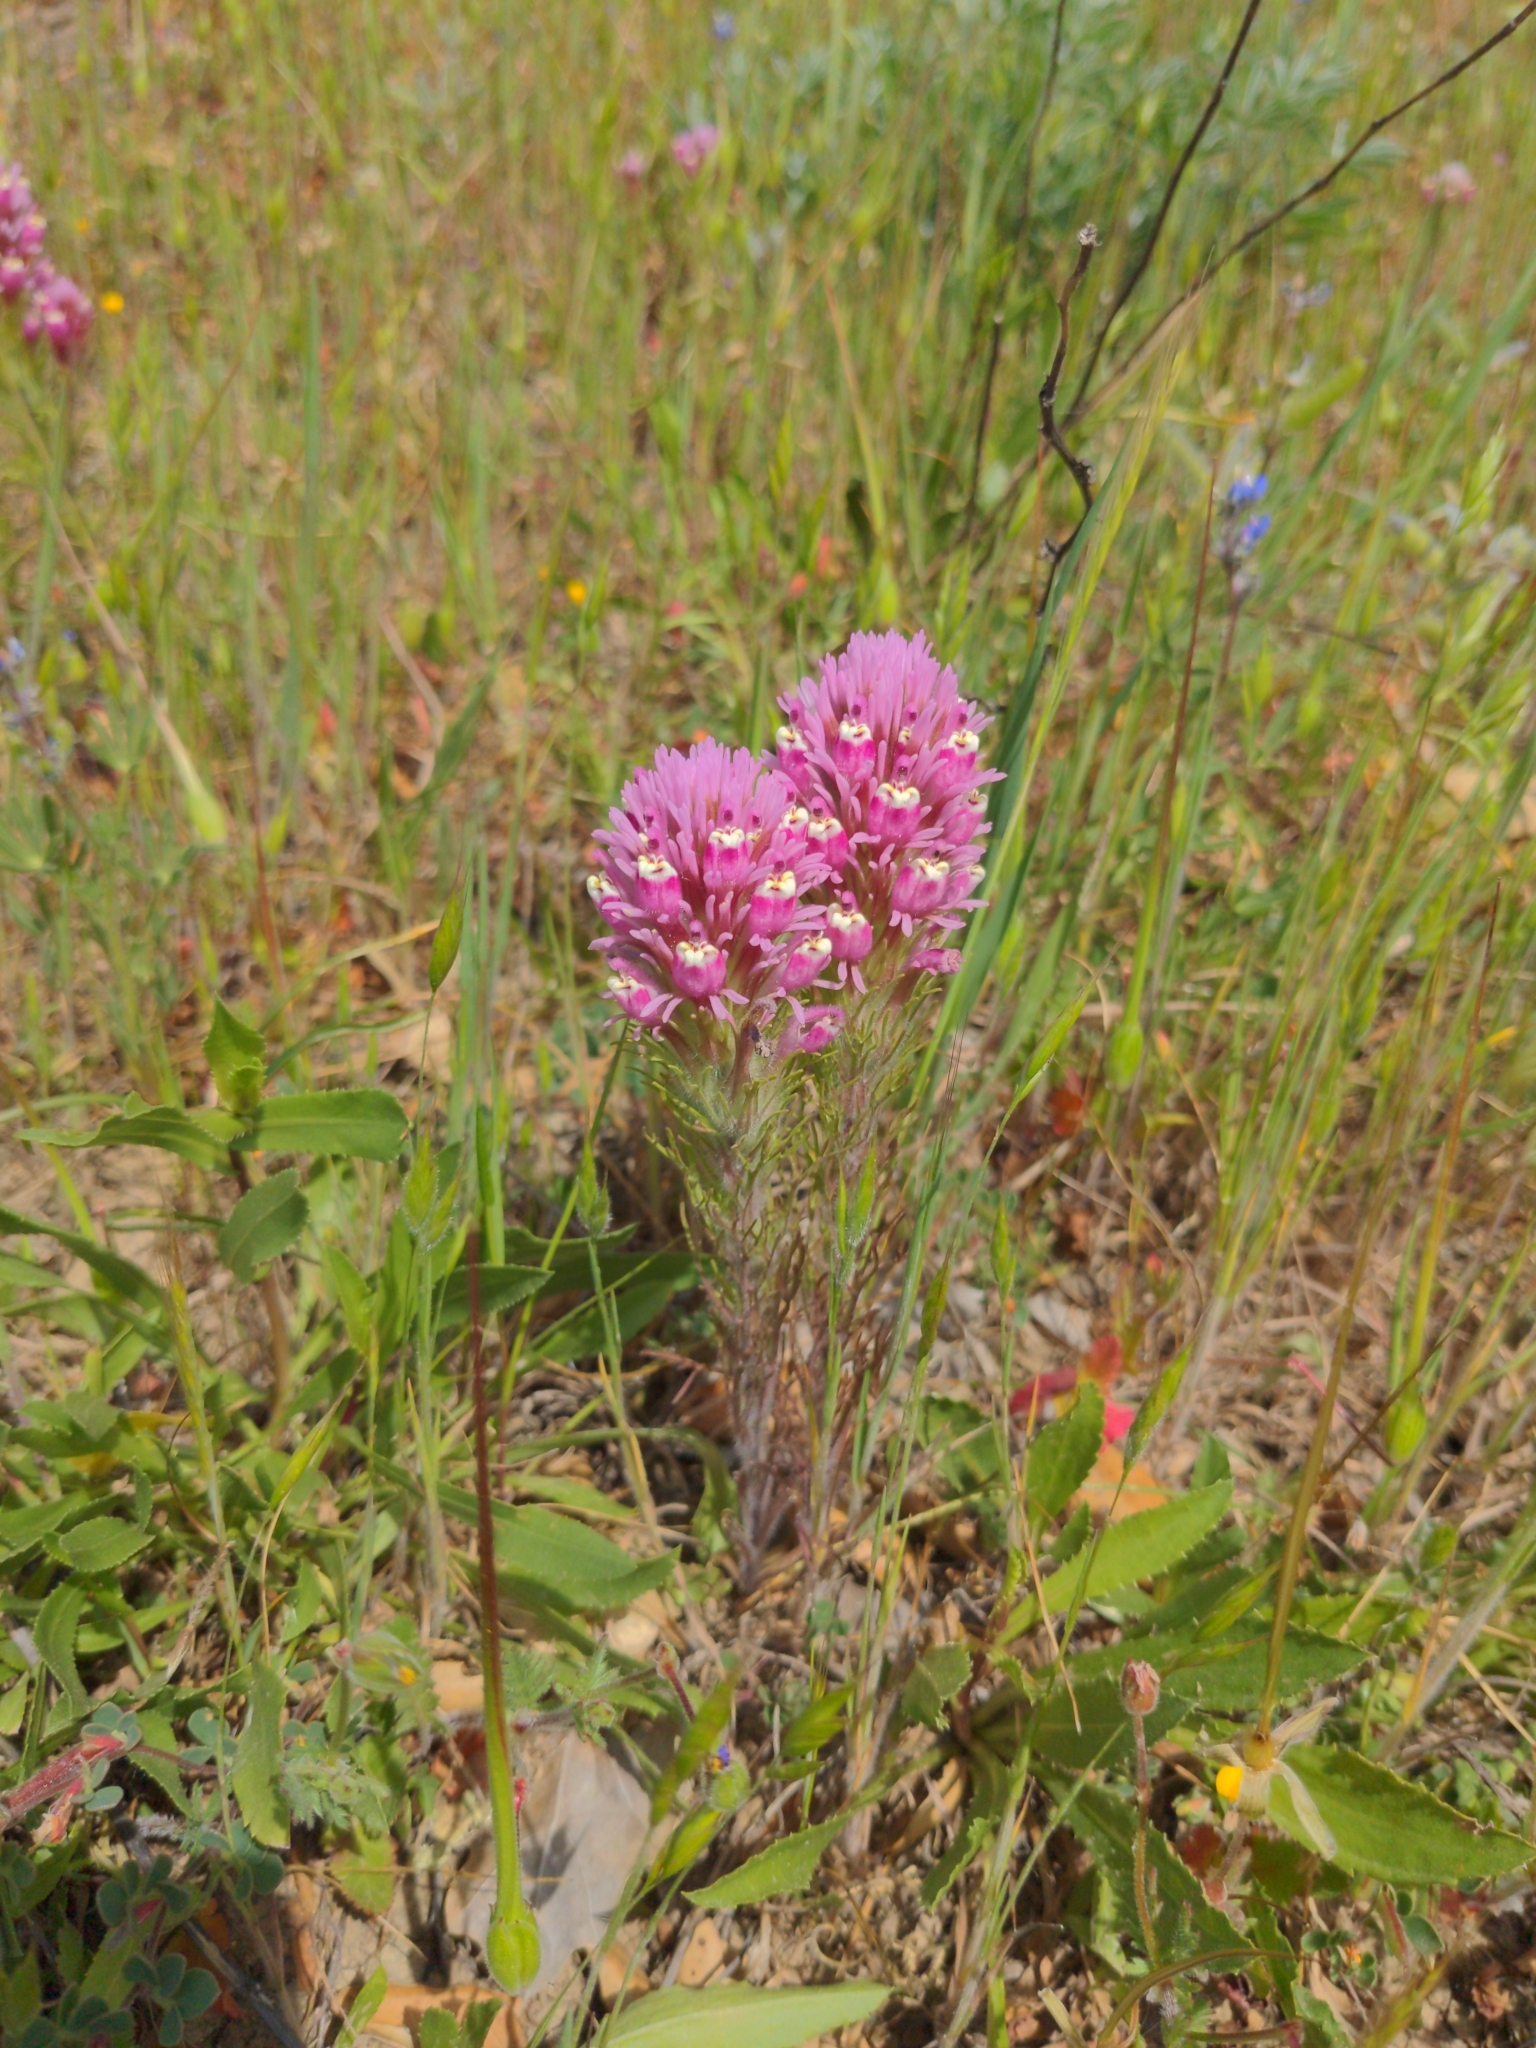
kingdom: Plantae
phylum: Tracheophyta
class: Magnoliopsida
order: Lamiales
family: Orobanchaceae
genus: Castilleja
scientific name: Castilleja exserta
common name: Purple owl-clover
